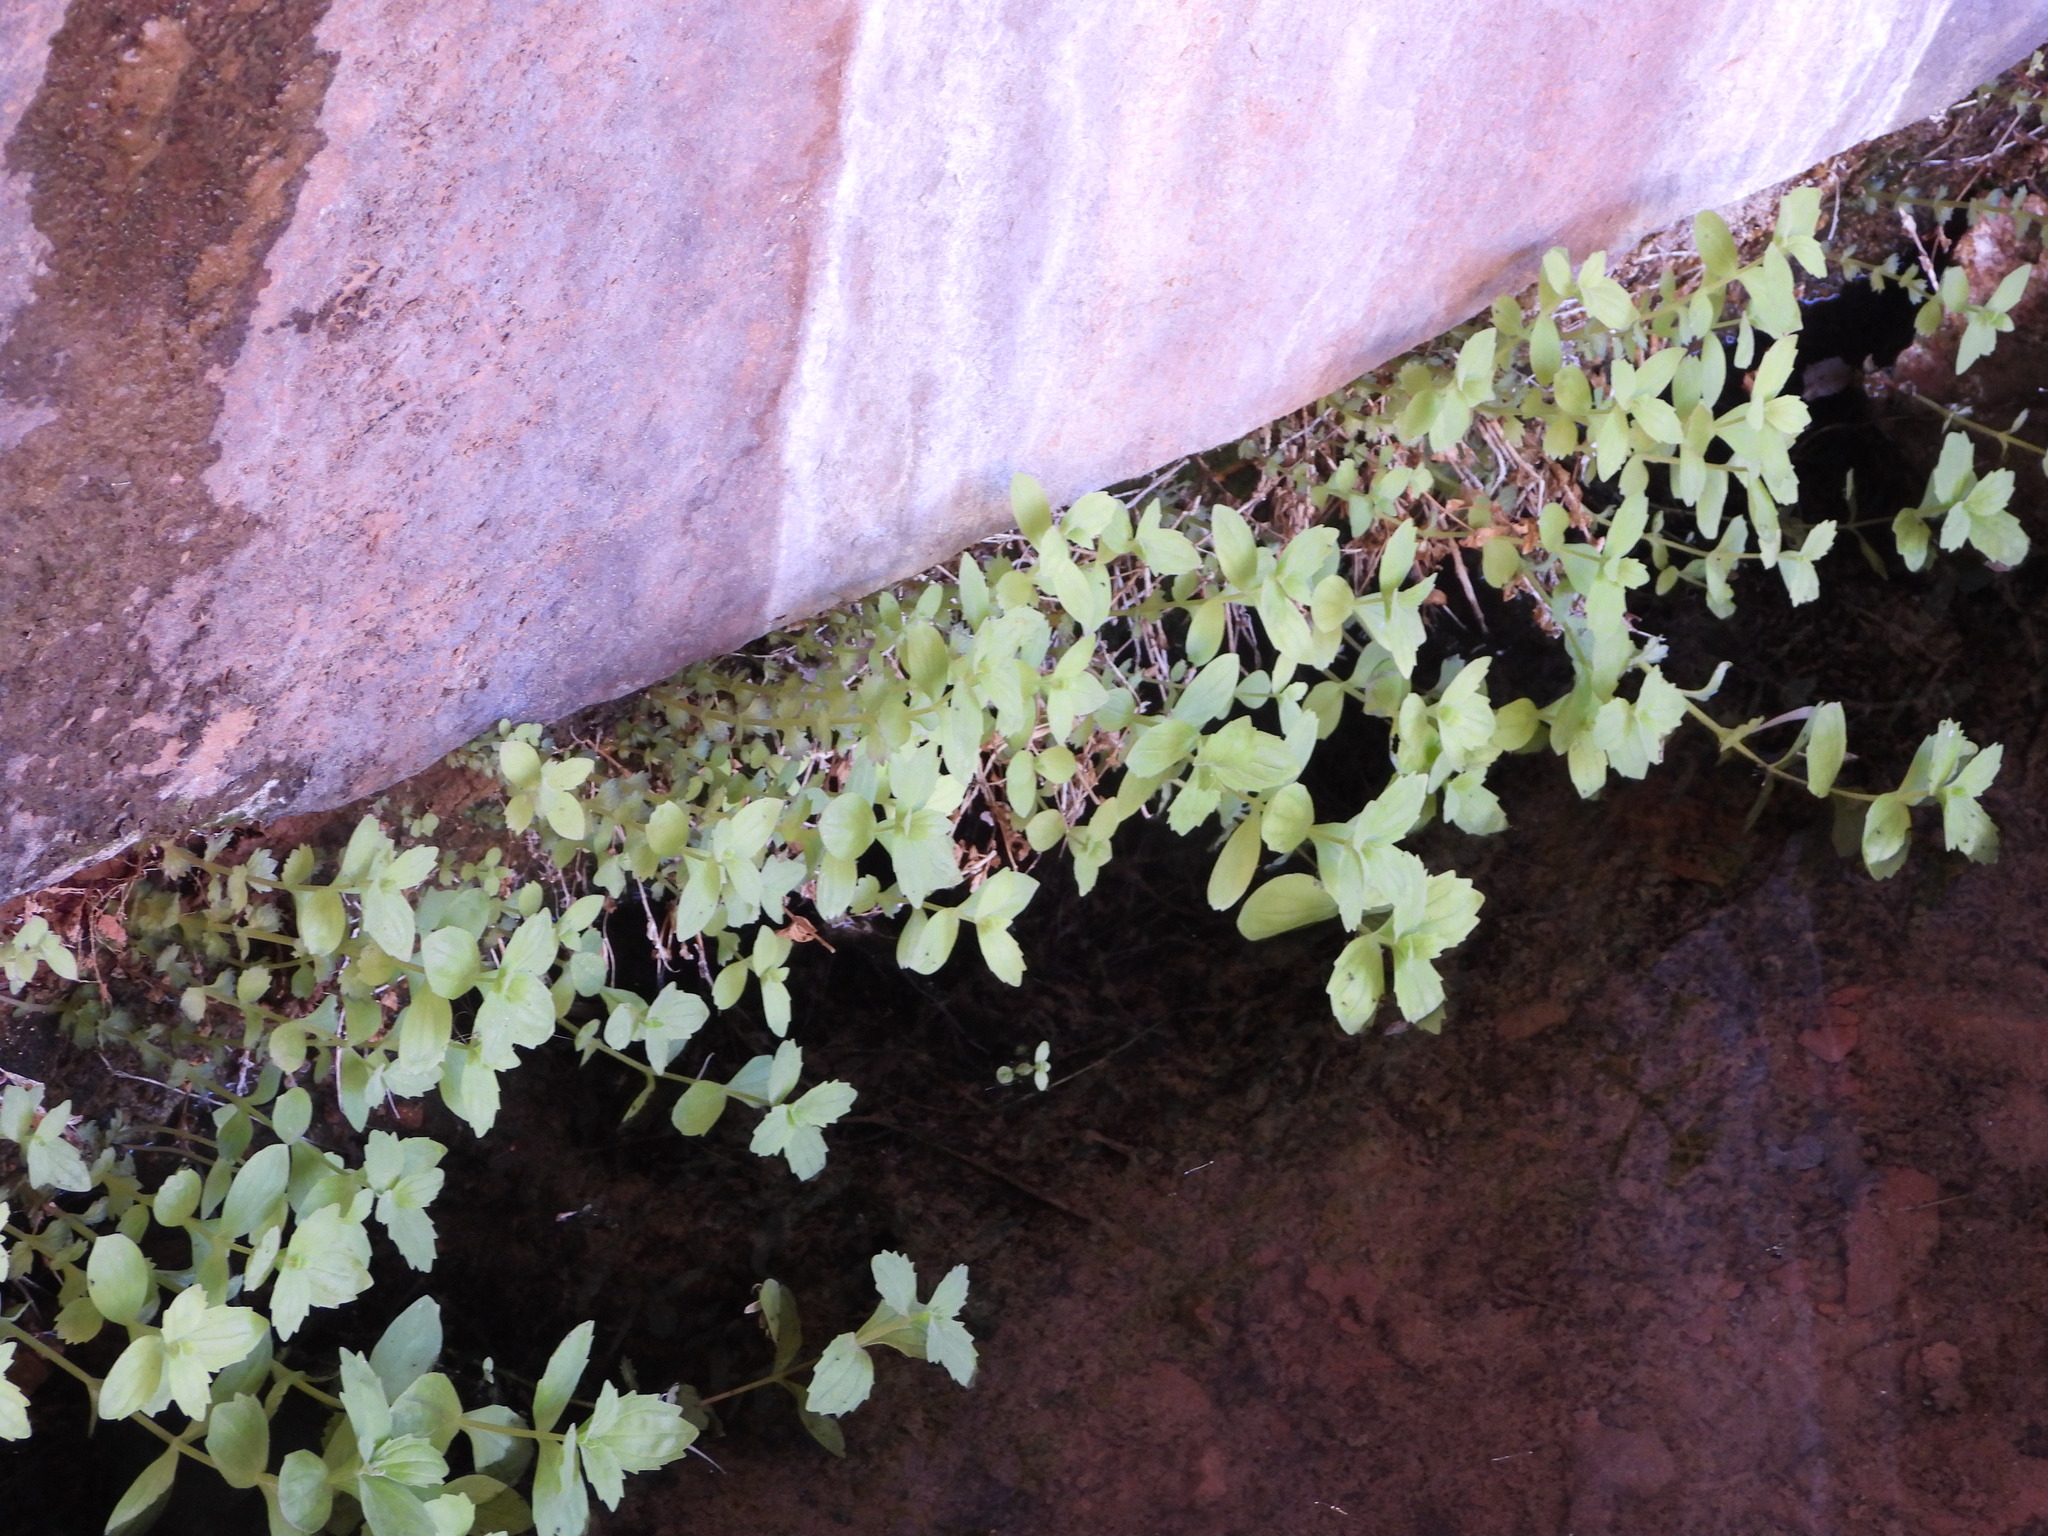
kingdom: Plantae
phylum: Tracheophyta
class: Magnoliopsida
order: Lamiales
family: Phrymaceae
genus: Erythranthe
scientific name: Erythranthe eastwoodiae
